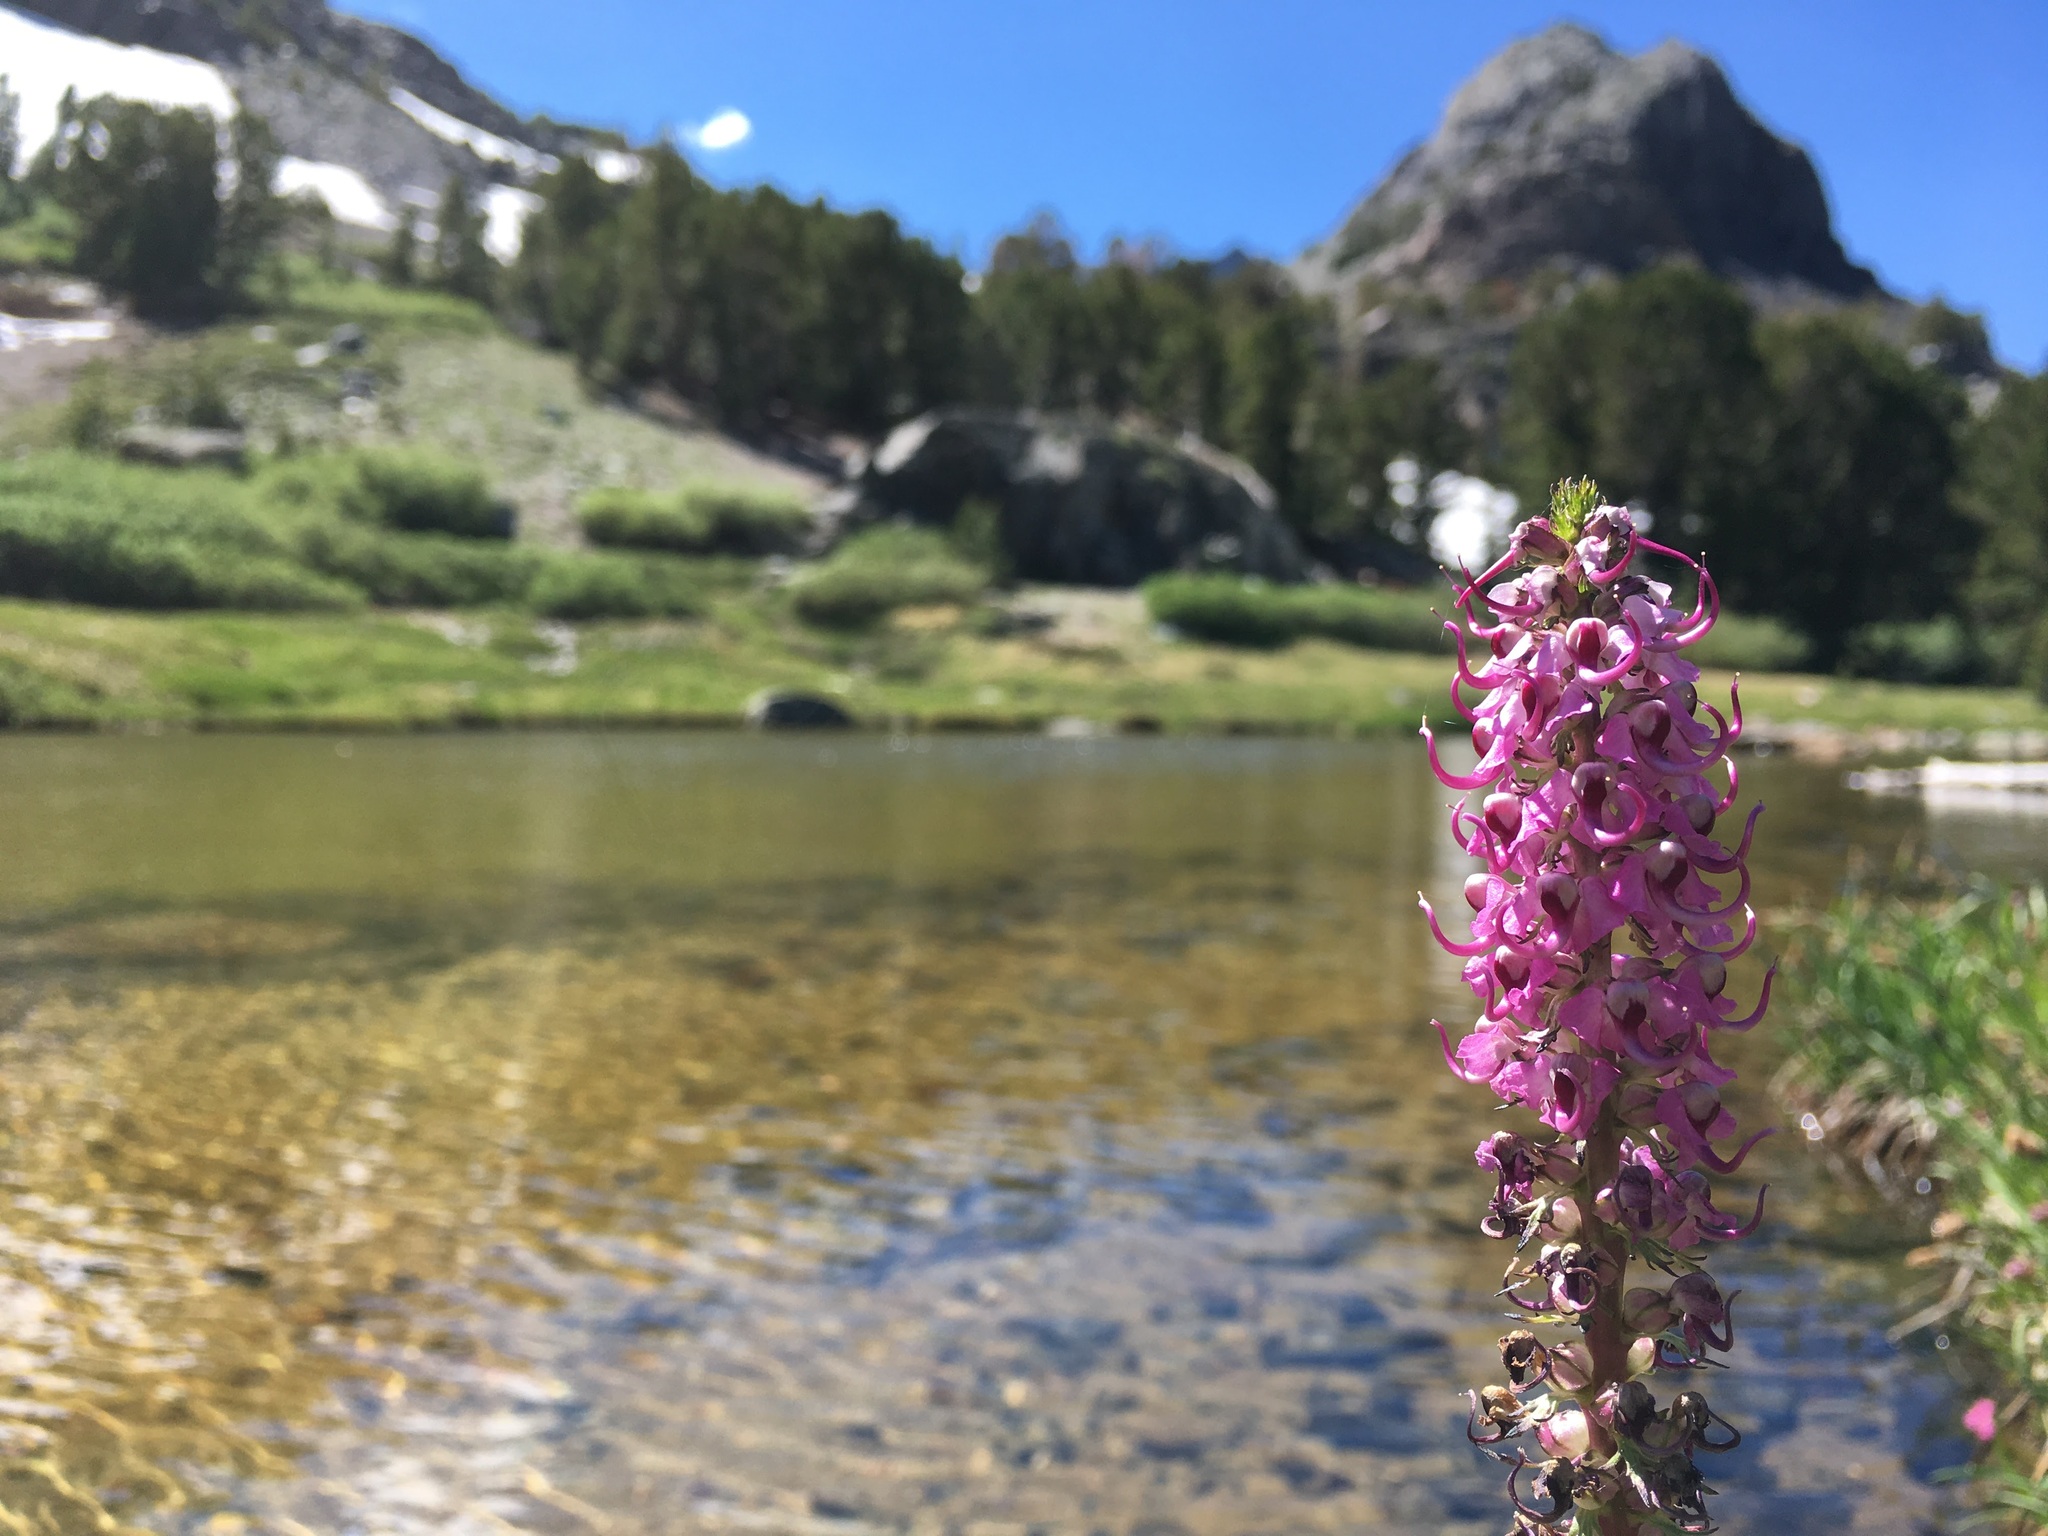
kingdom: Plantae
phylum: Tracheophyta
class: Magnoliopsida
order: Lamiales
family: Orobanchaceae
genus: Pedicularis
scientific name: Pedicularis groenlandica
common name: Elephant's-head
